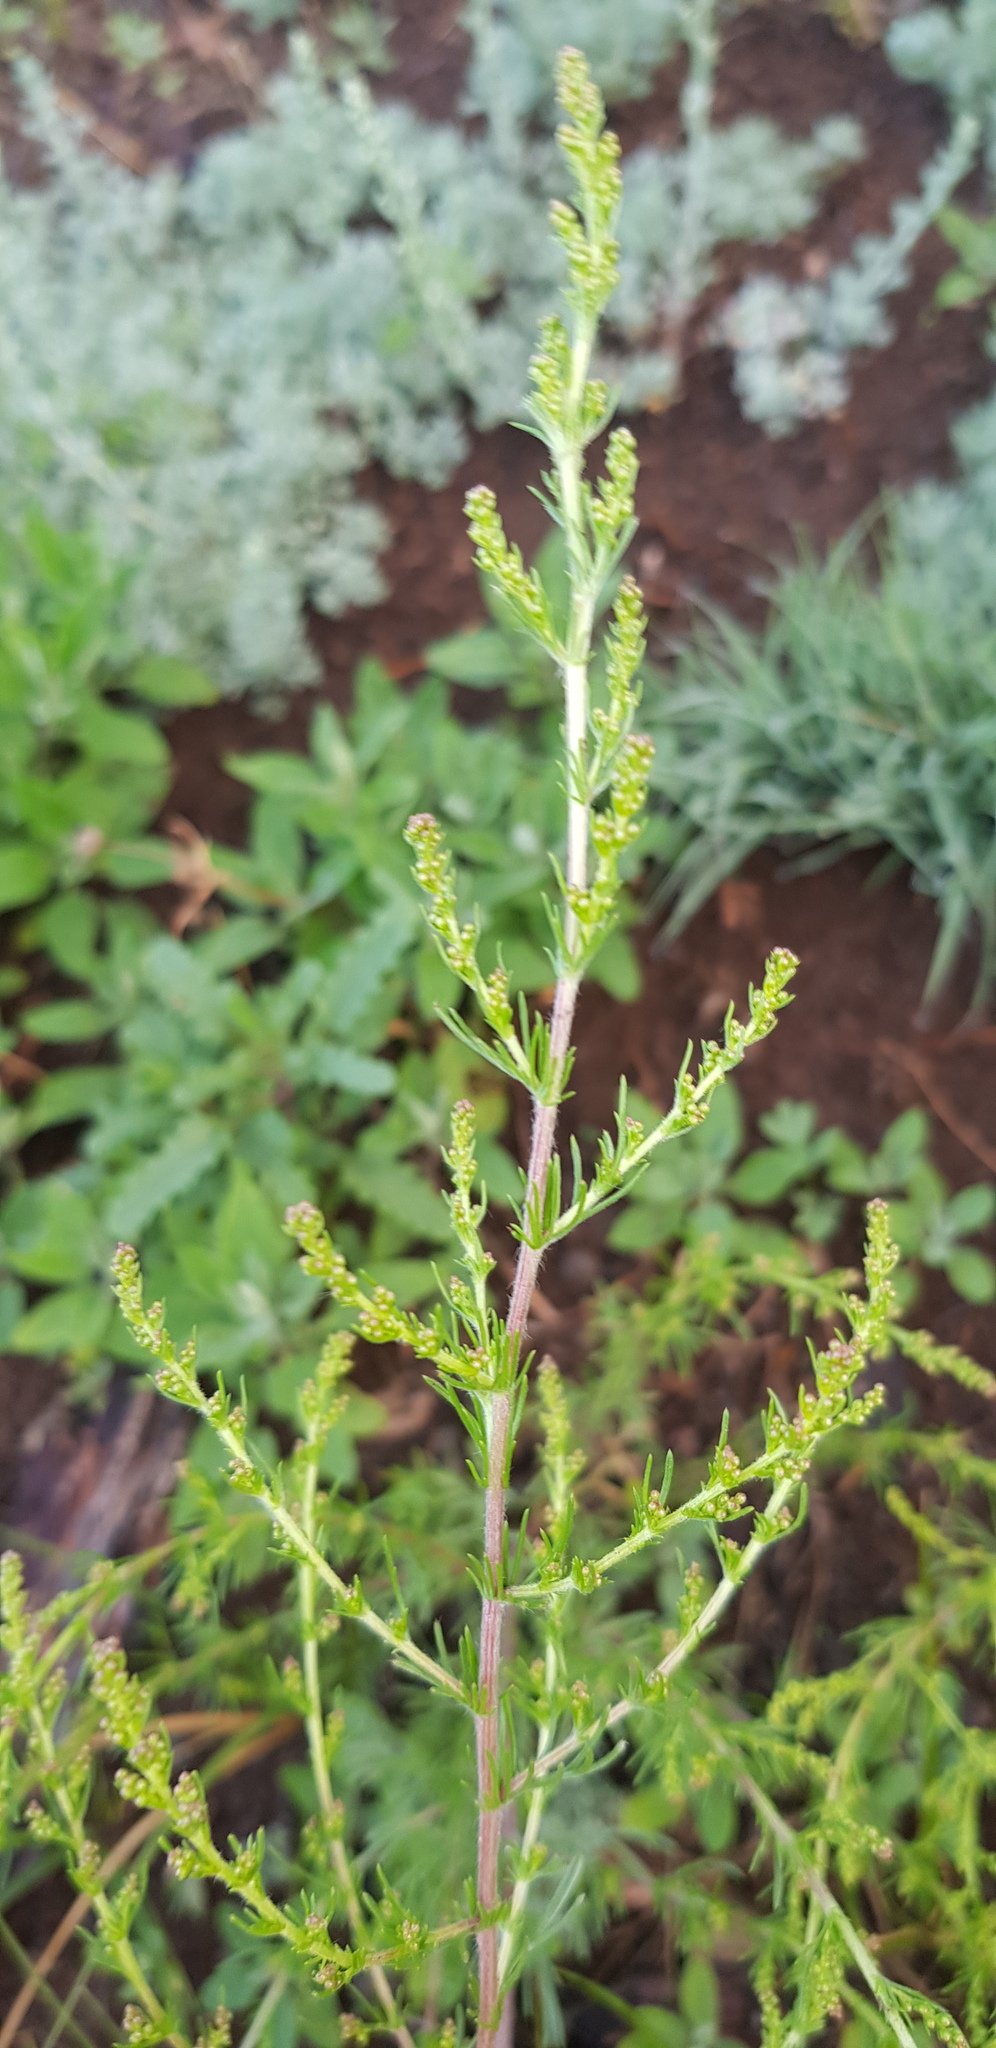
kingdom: Plantae
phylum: Tracheophyta
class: Magnoliopsida
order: Asterales
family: Asteraceae
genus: Artemisia
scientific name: Artemisia scoparia
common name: Redstem wormwood
